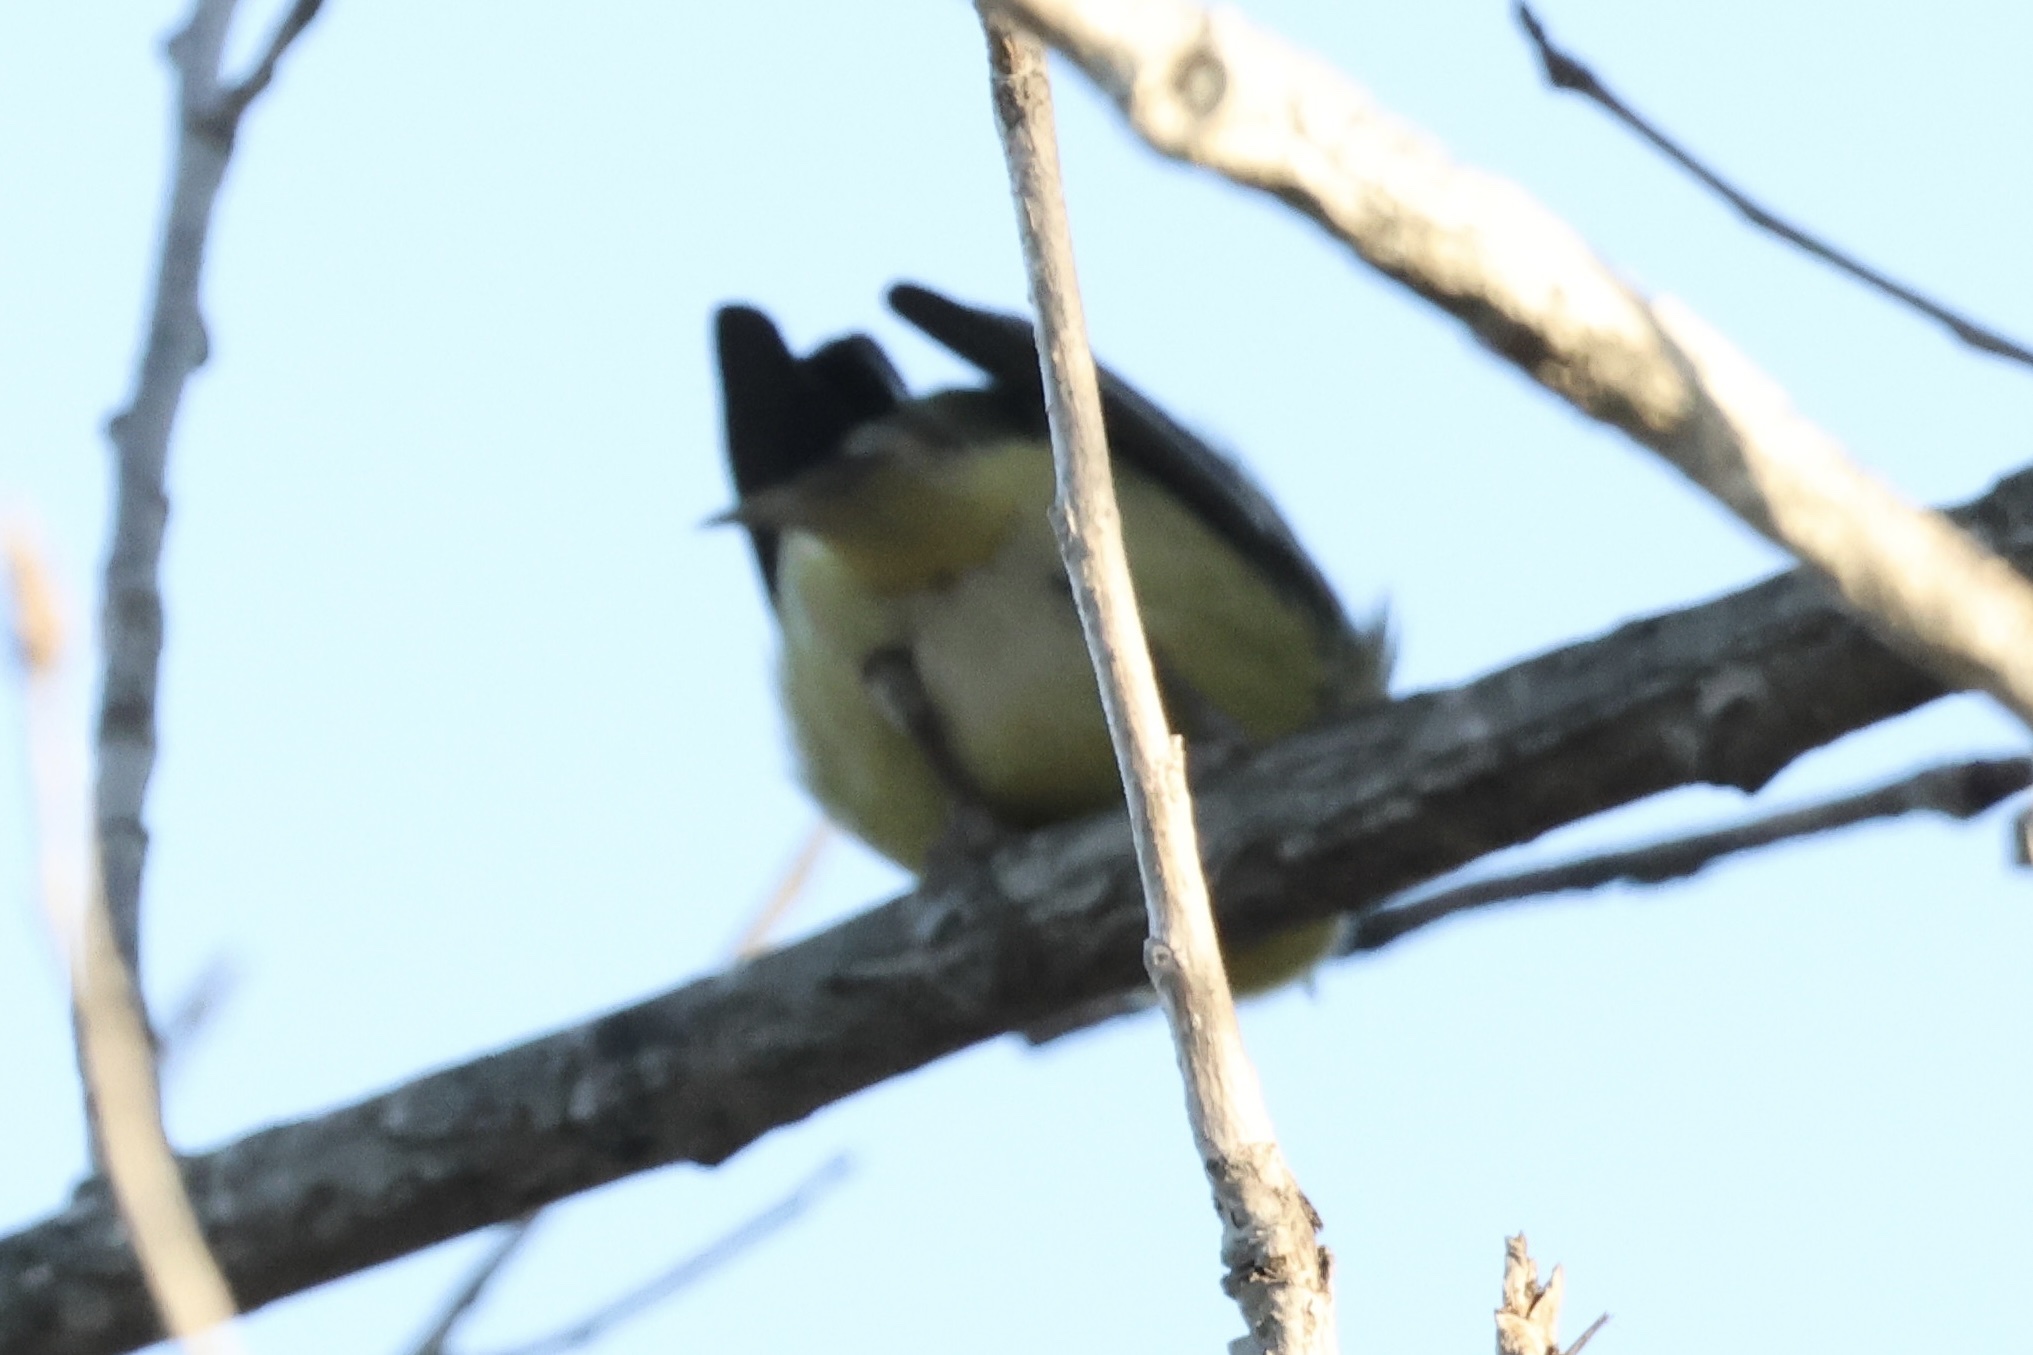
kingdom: Animalia
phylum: Chordata
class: Aves
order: Passeriformes
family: Fringillidae
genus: Spinus
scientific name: Spinus psaltria
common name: Lesser goldfinch
